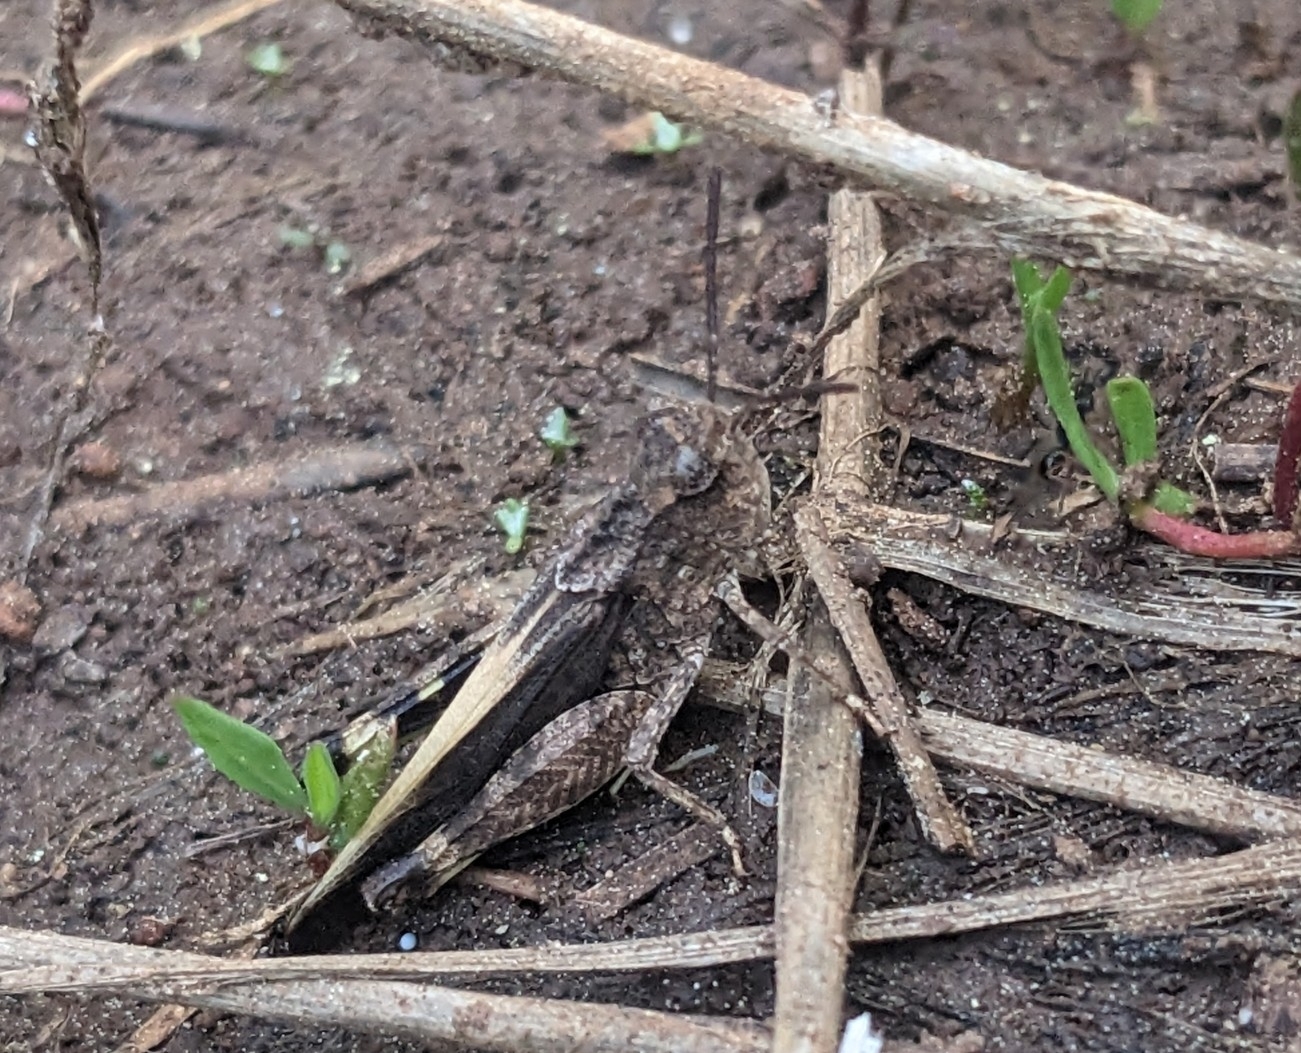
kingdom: Animalia
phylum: Arthropoda
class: Insecta
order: Orthoptera
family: Acrididae
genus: Arphia
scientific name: Arphia conspersa
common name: Speckle-winged rangeland grasshopper
